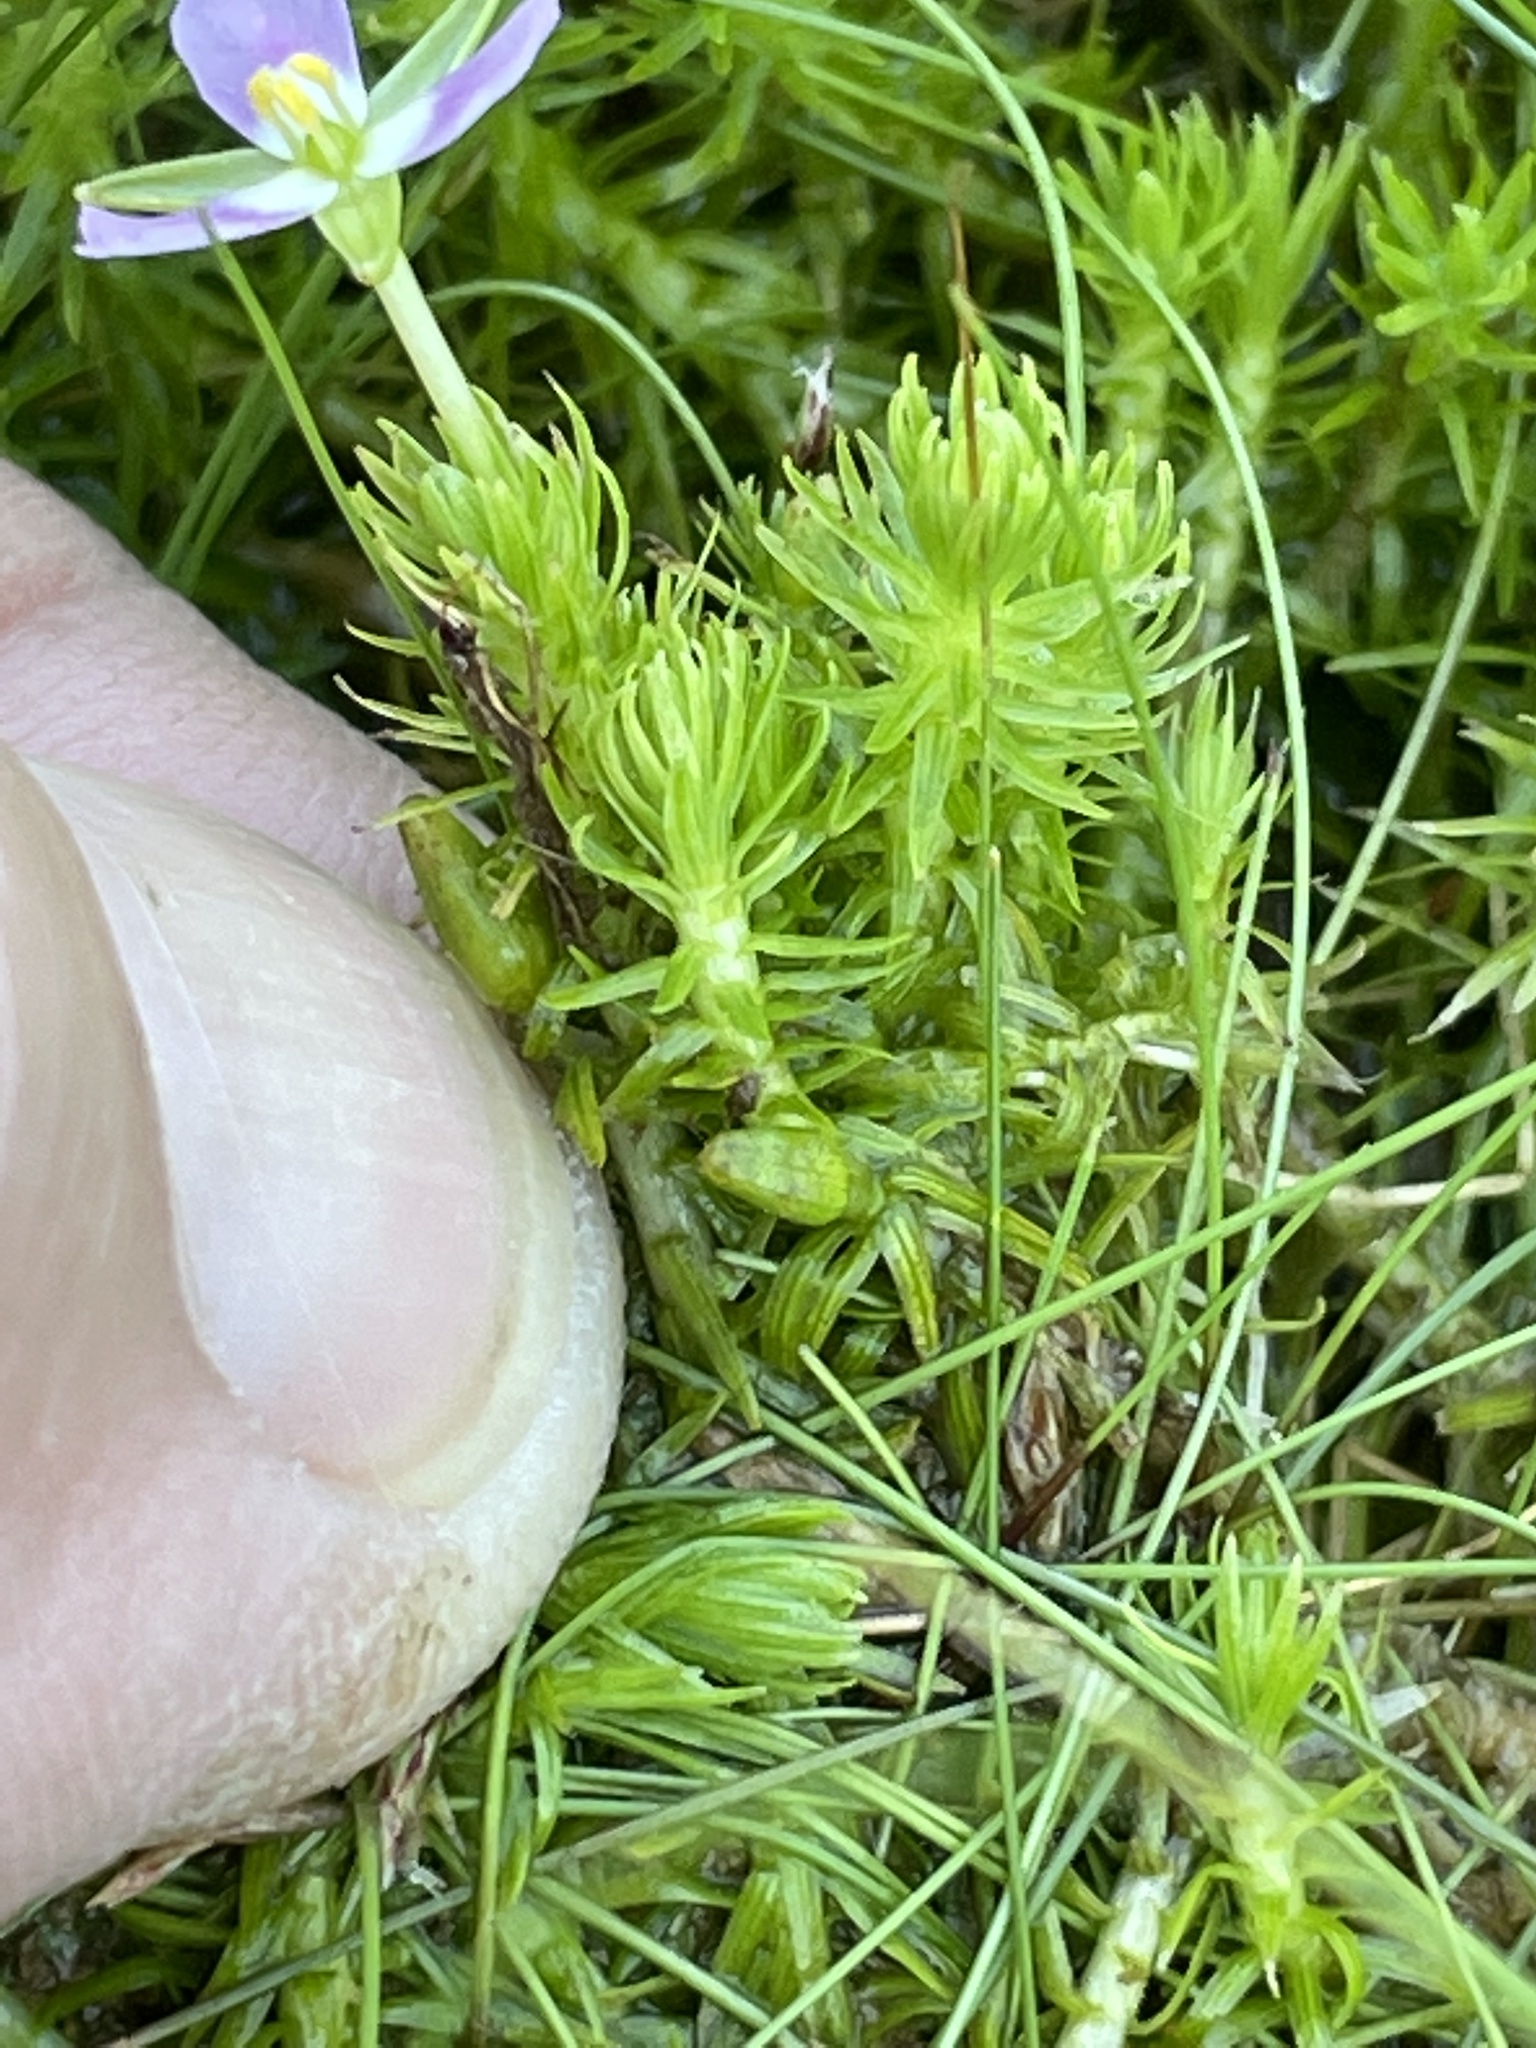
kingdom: Plantae
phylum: Tracheophyta
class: Liliopsida
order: Poales
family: Mayacaceae
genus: Mayaca
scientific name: Mayaca fluviatilis
